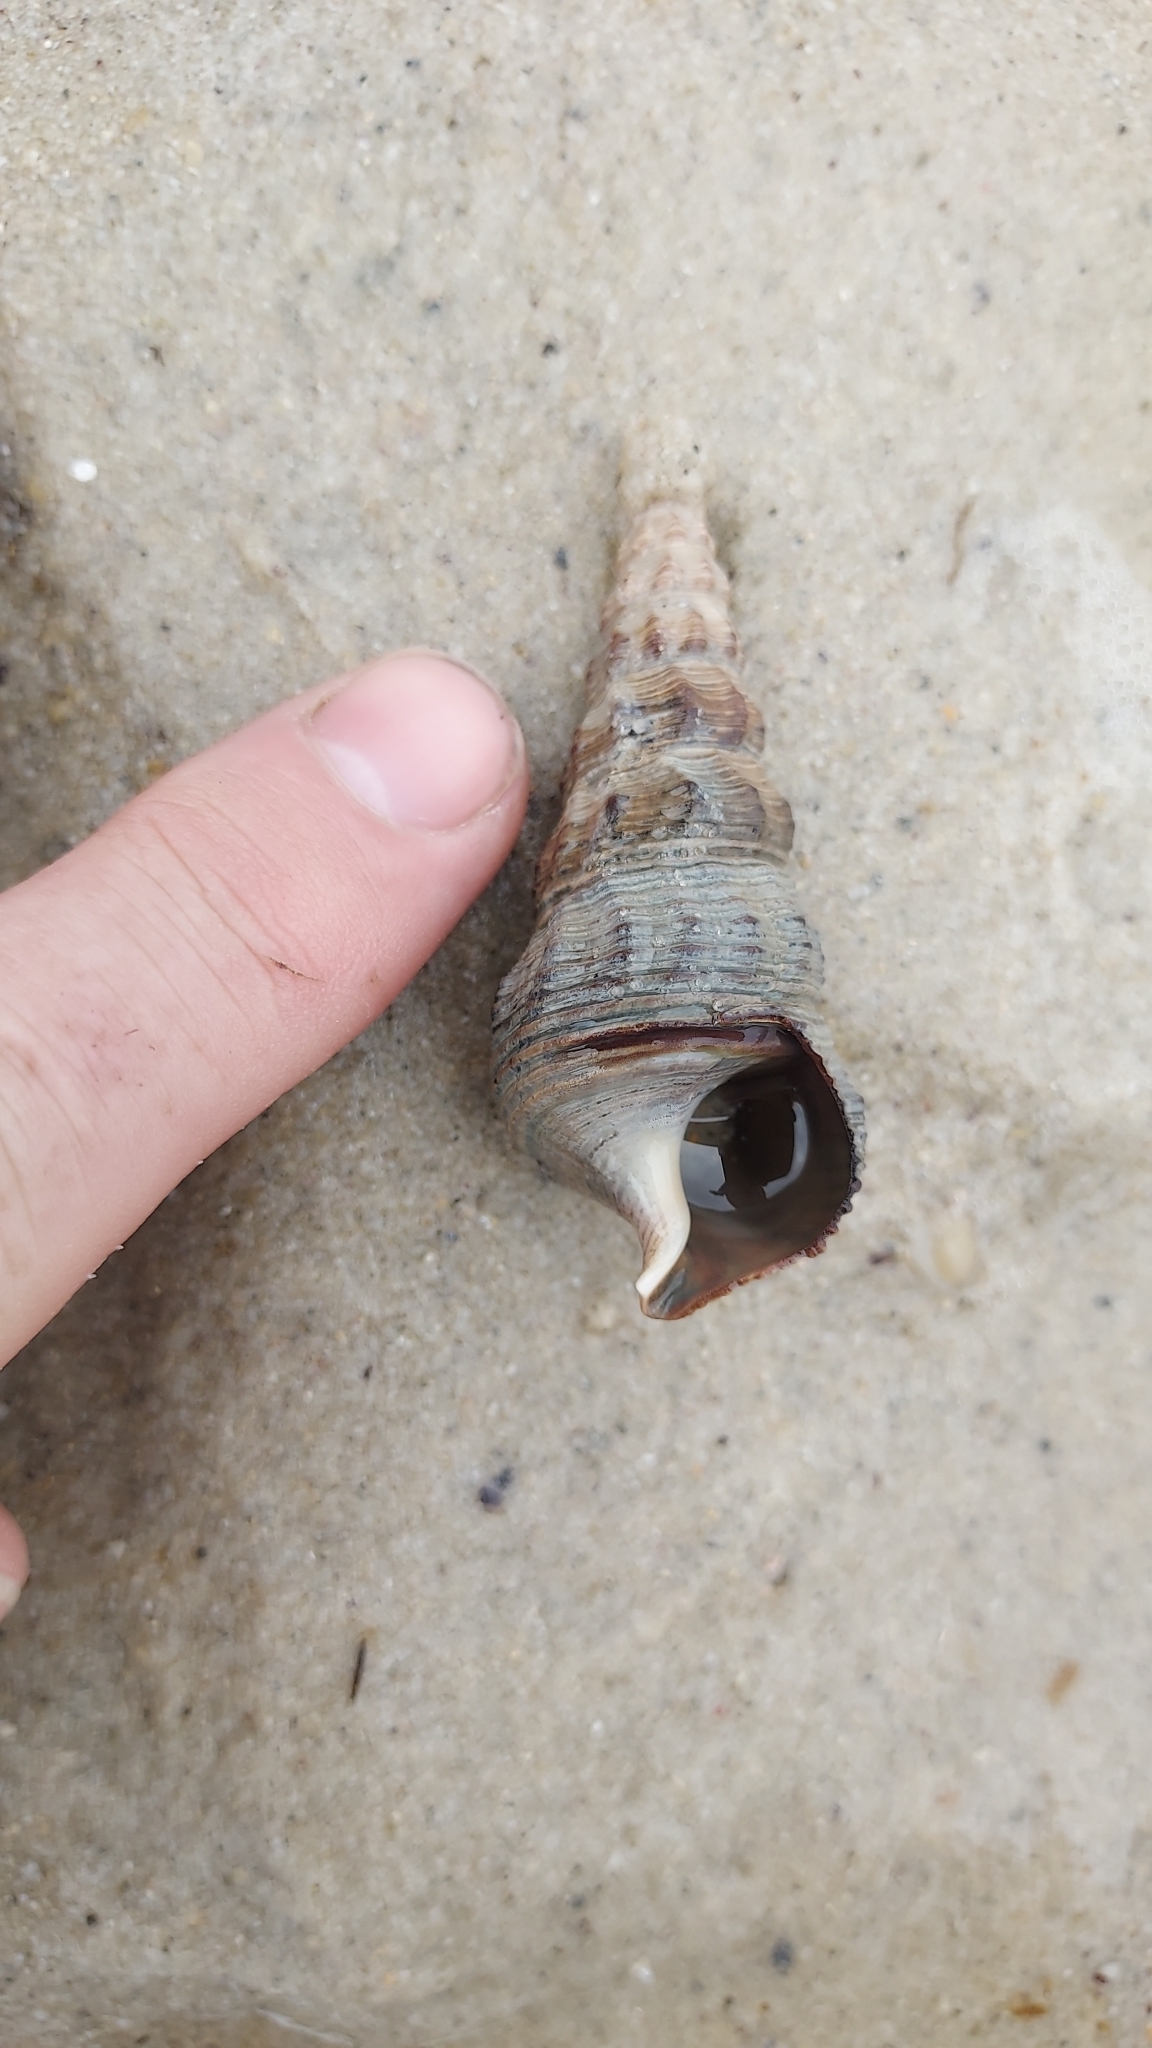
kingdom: Animalia
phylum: Mollusca
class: Gastropoda
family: Batillariidae
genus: Pyrazus
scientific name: Pyrazus ebeninus
